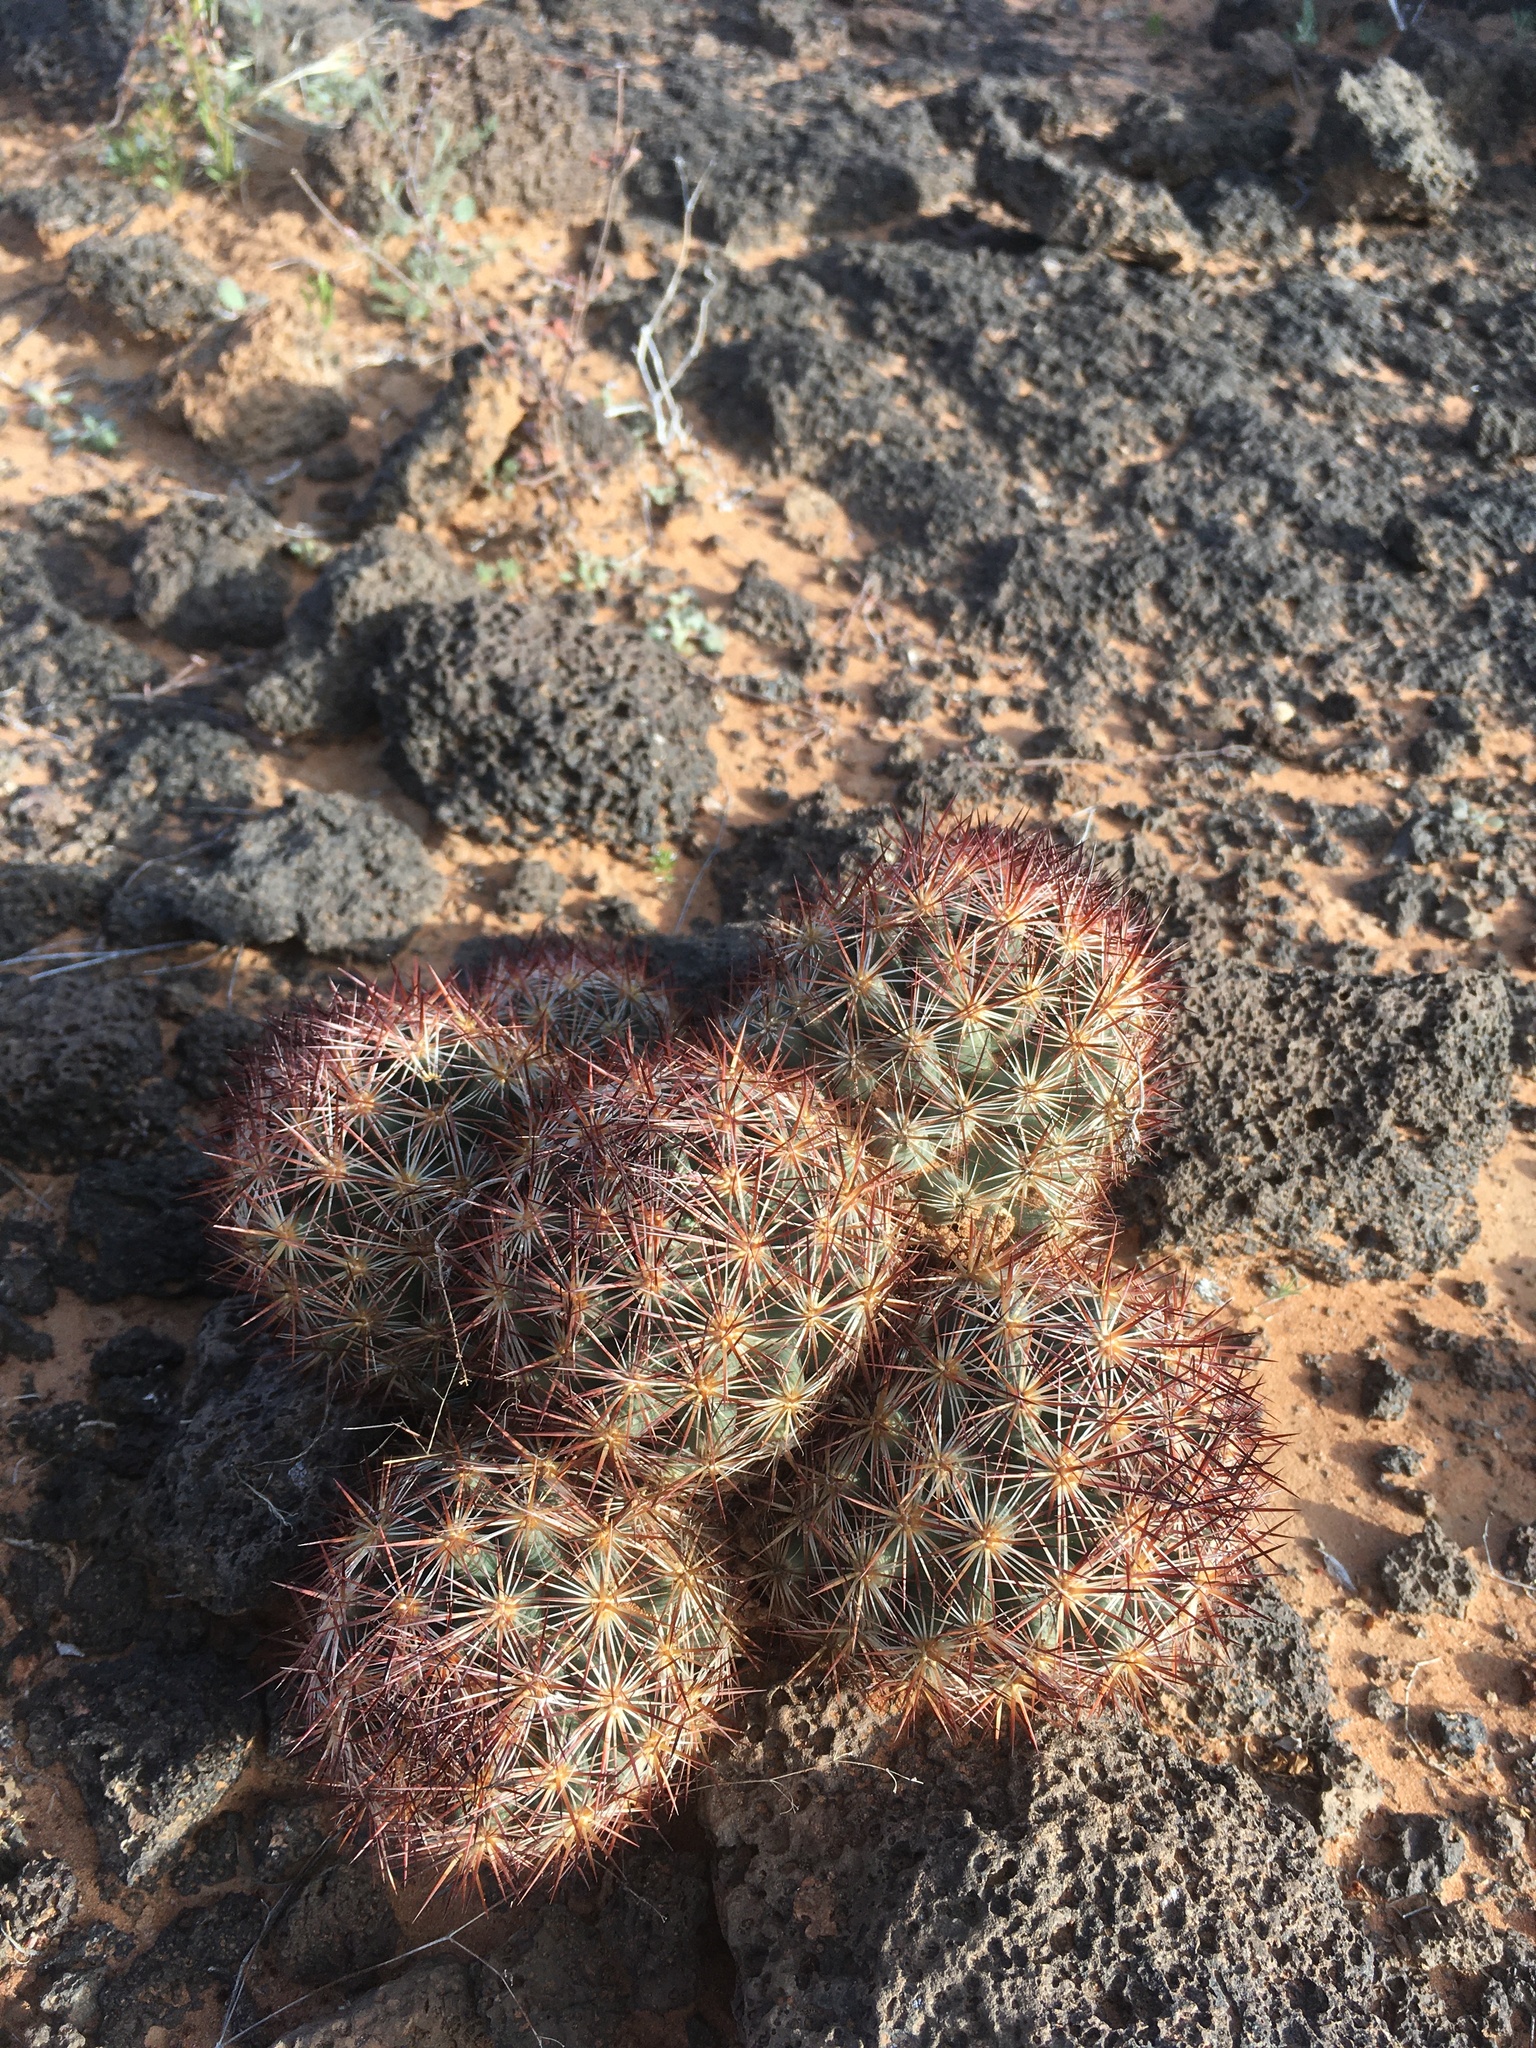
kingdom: Plantae
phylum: Tracheophyta
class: Magnoliopsida
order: Caryophyllales
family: Cactaceae
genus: Pelecyphora
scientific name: Pelecyphora vivipara
